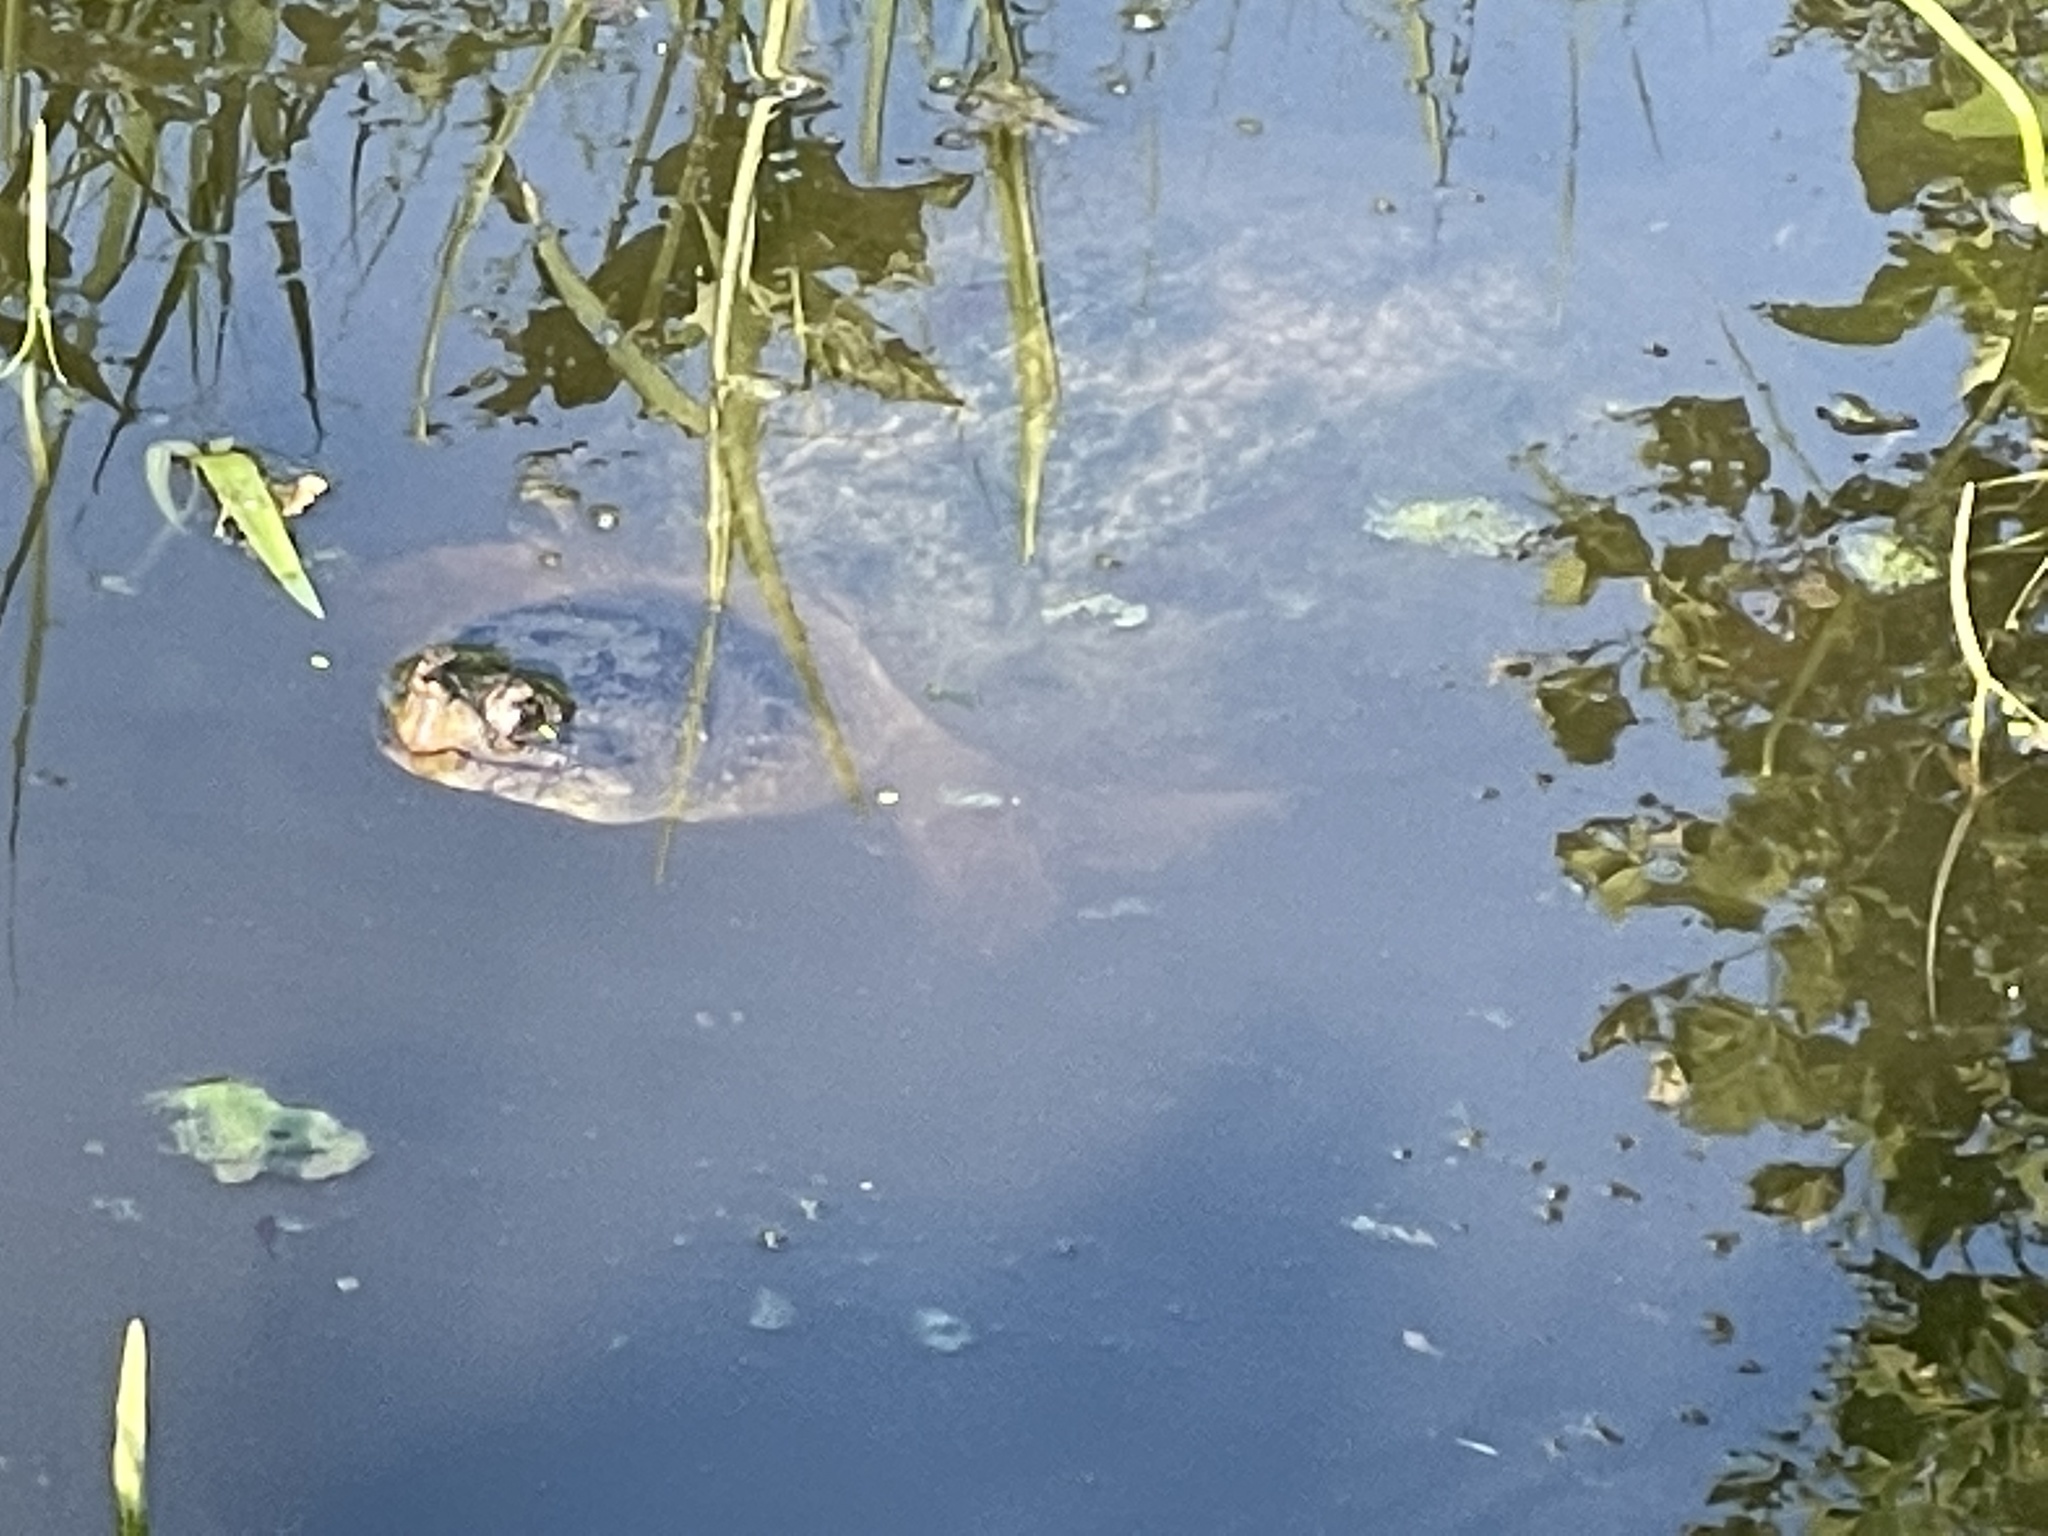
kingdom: Animalia
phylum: Chordata
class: Testudines
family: Chelydridae
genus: Chelydra
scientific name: Chelydra serpentina
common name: Common snapping turtle
